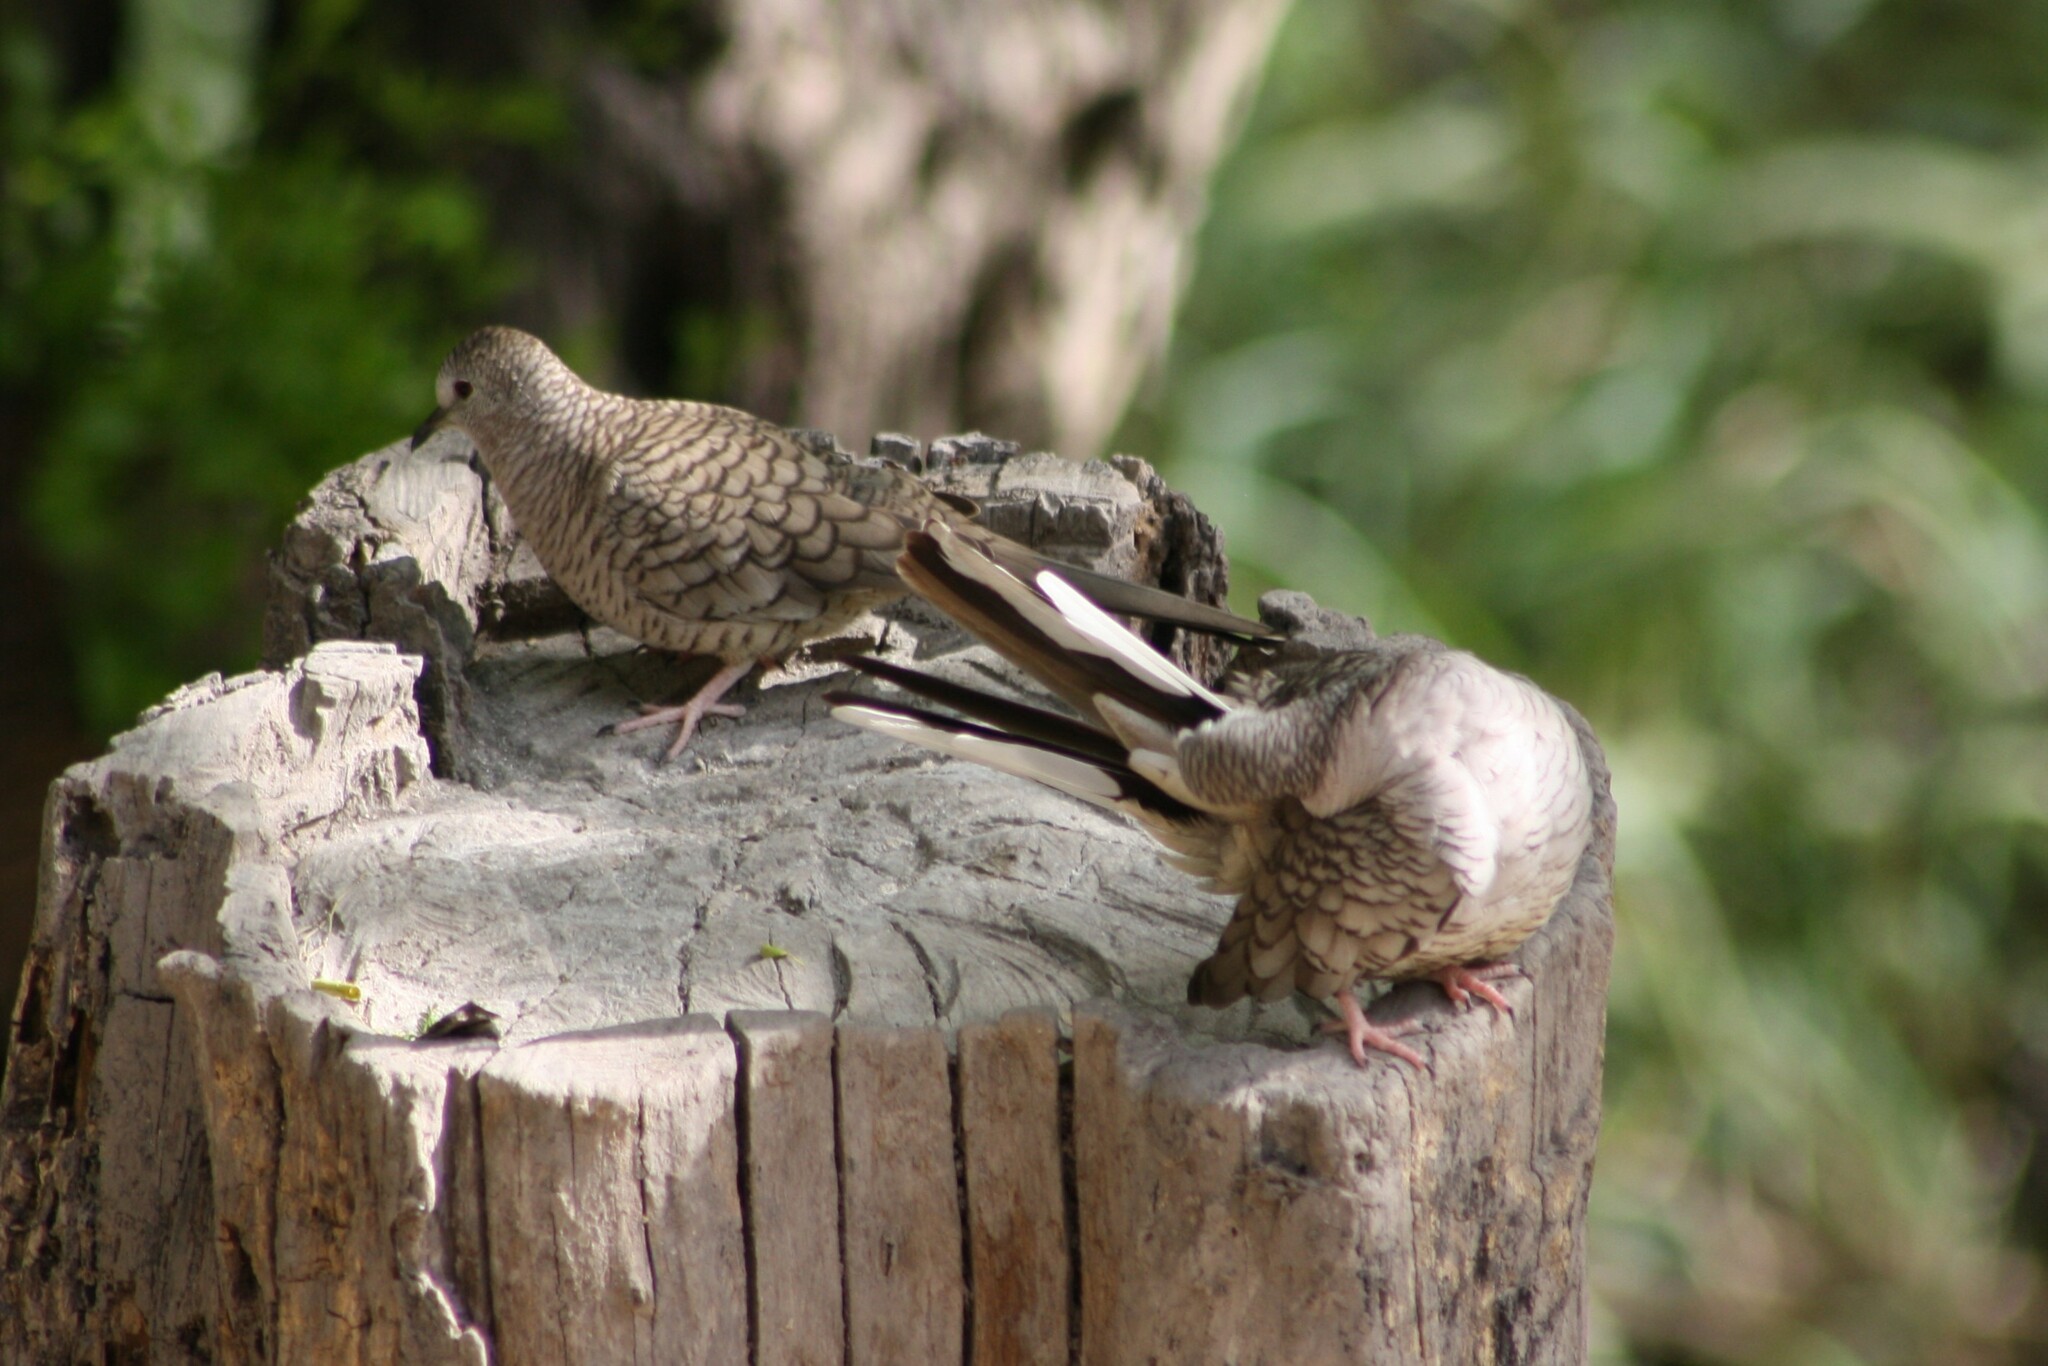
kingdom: Animalia
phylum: Chordata
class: Aves
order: Columbiformes
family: Columbidae
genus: Columbina
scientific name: Columbina inca
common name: Inca dove
